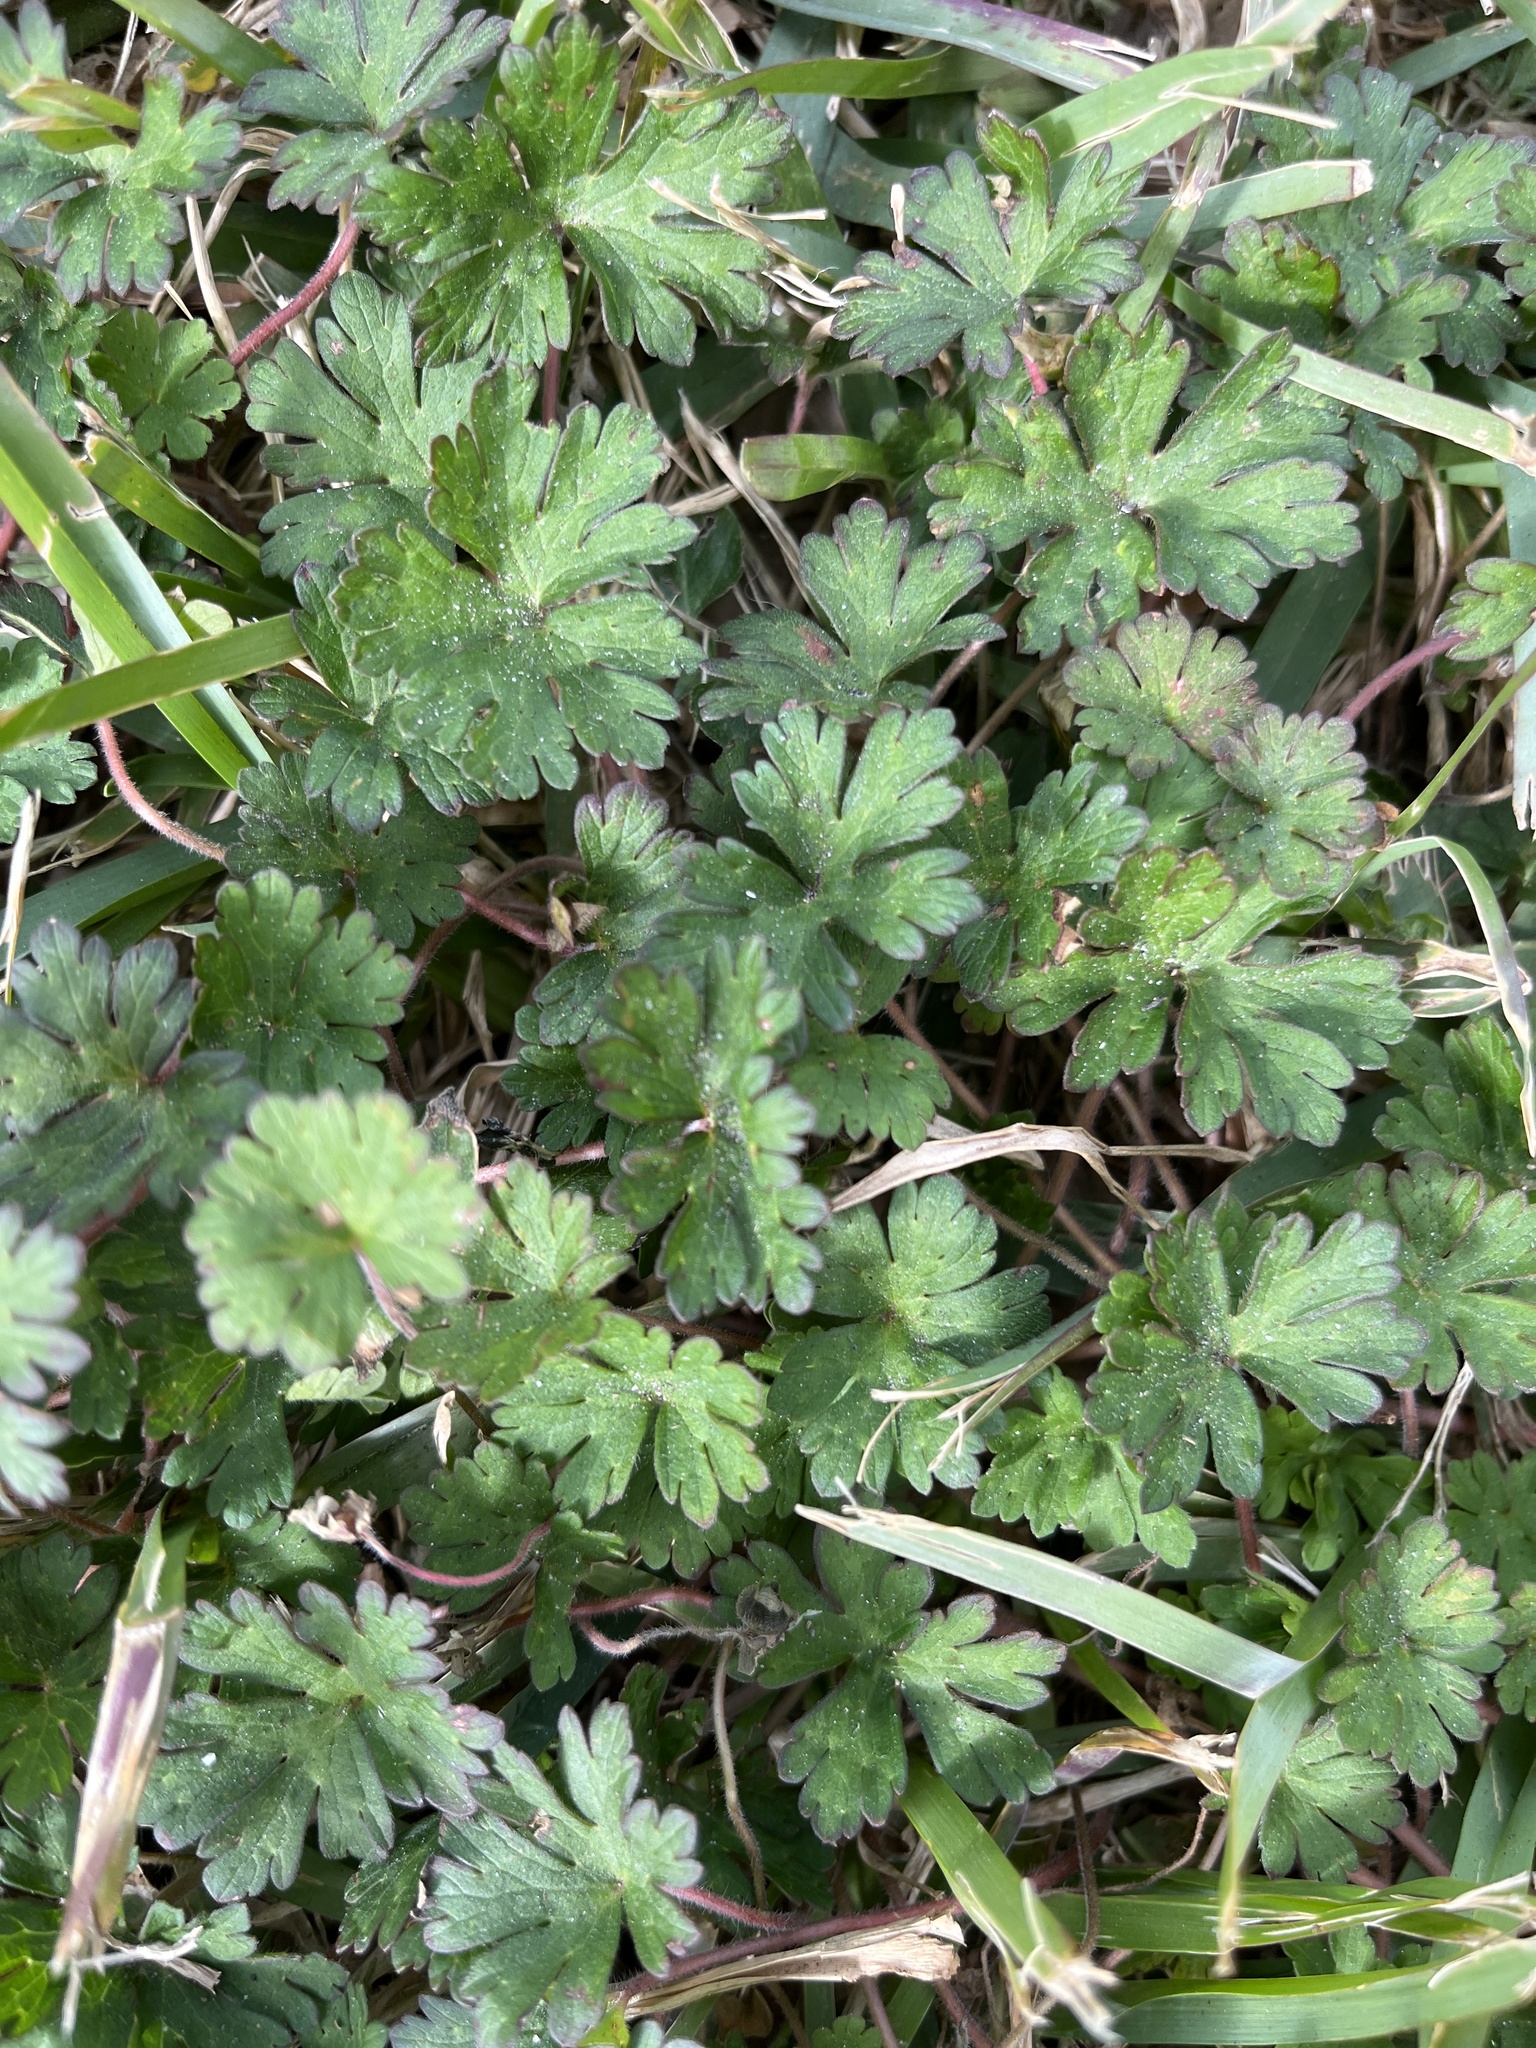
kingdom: Plantae
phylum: Tracheophyta
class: Magnoliopsida
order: Geraniales
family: Geraniaceae
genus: Geranium
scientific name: Geranium carolinianum
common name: Carolina crane's-bill
